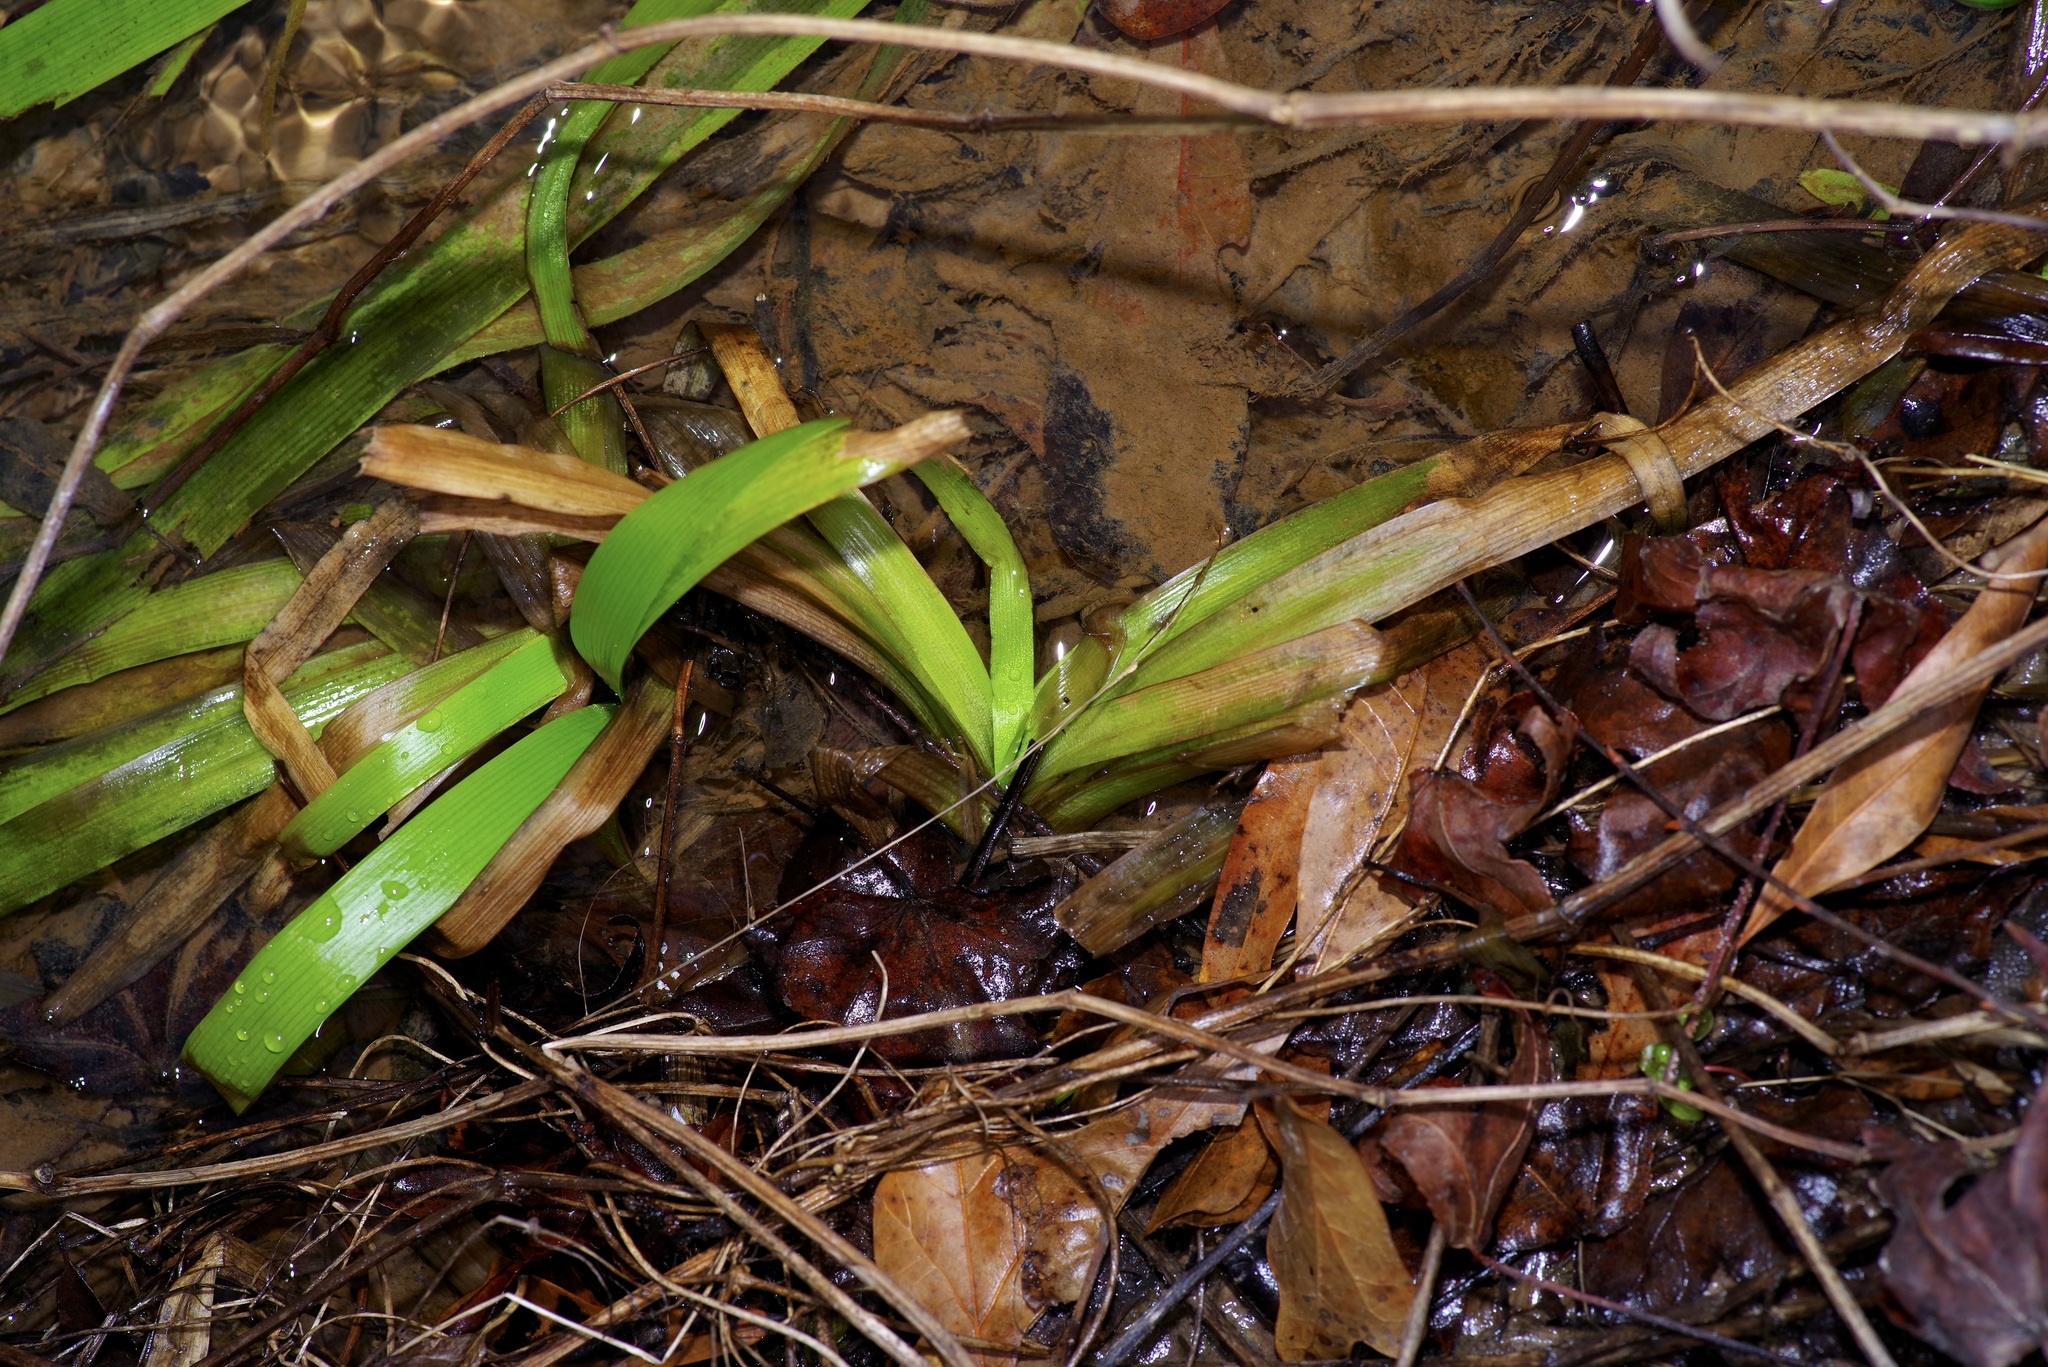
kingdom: Plantae
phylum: Tracheophyta
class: Liliopsida
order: Poales
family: Typhaceae
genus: Sparganium
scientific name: Sparganium americanum
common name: American burreed
